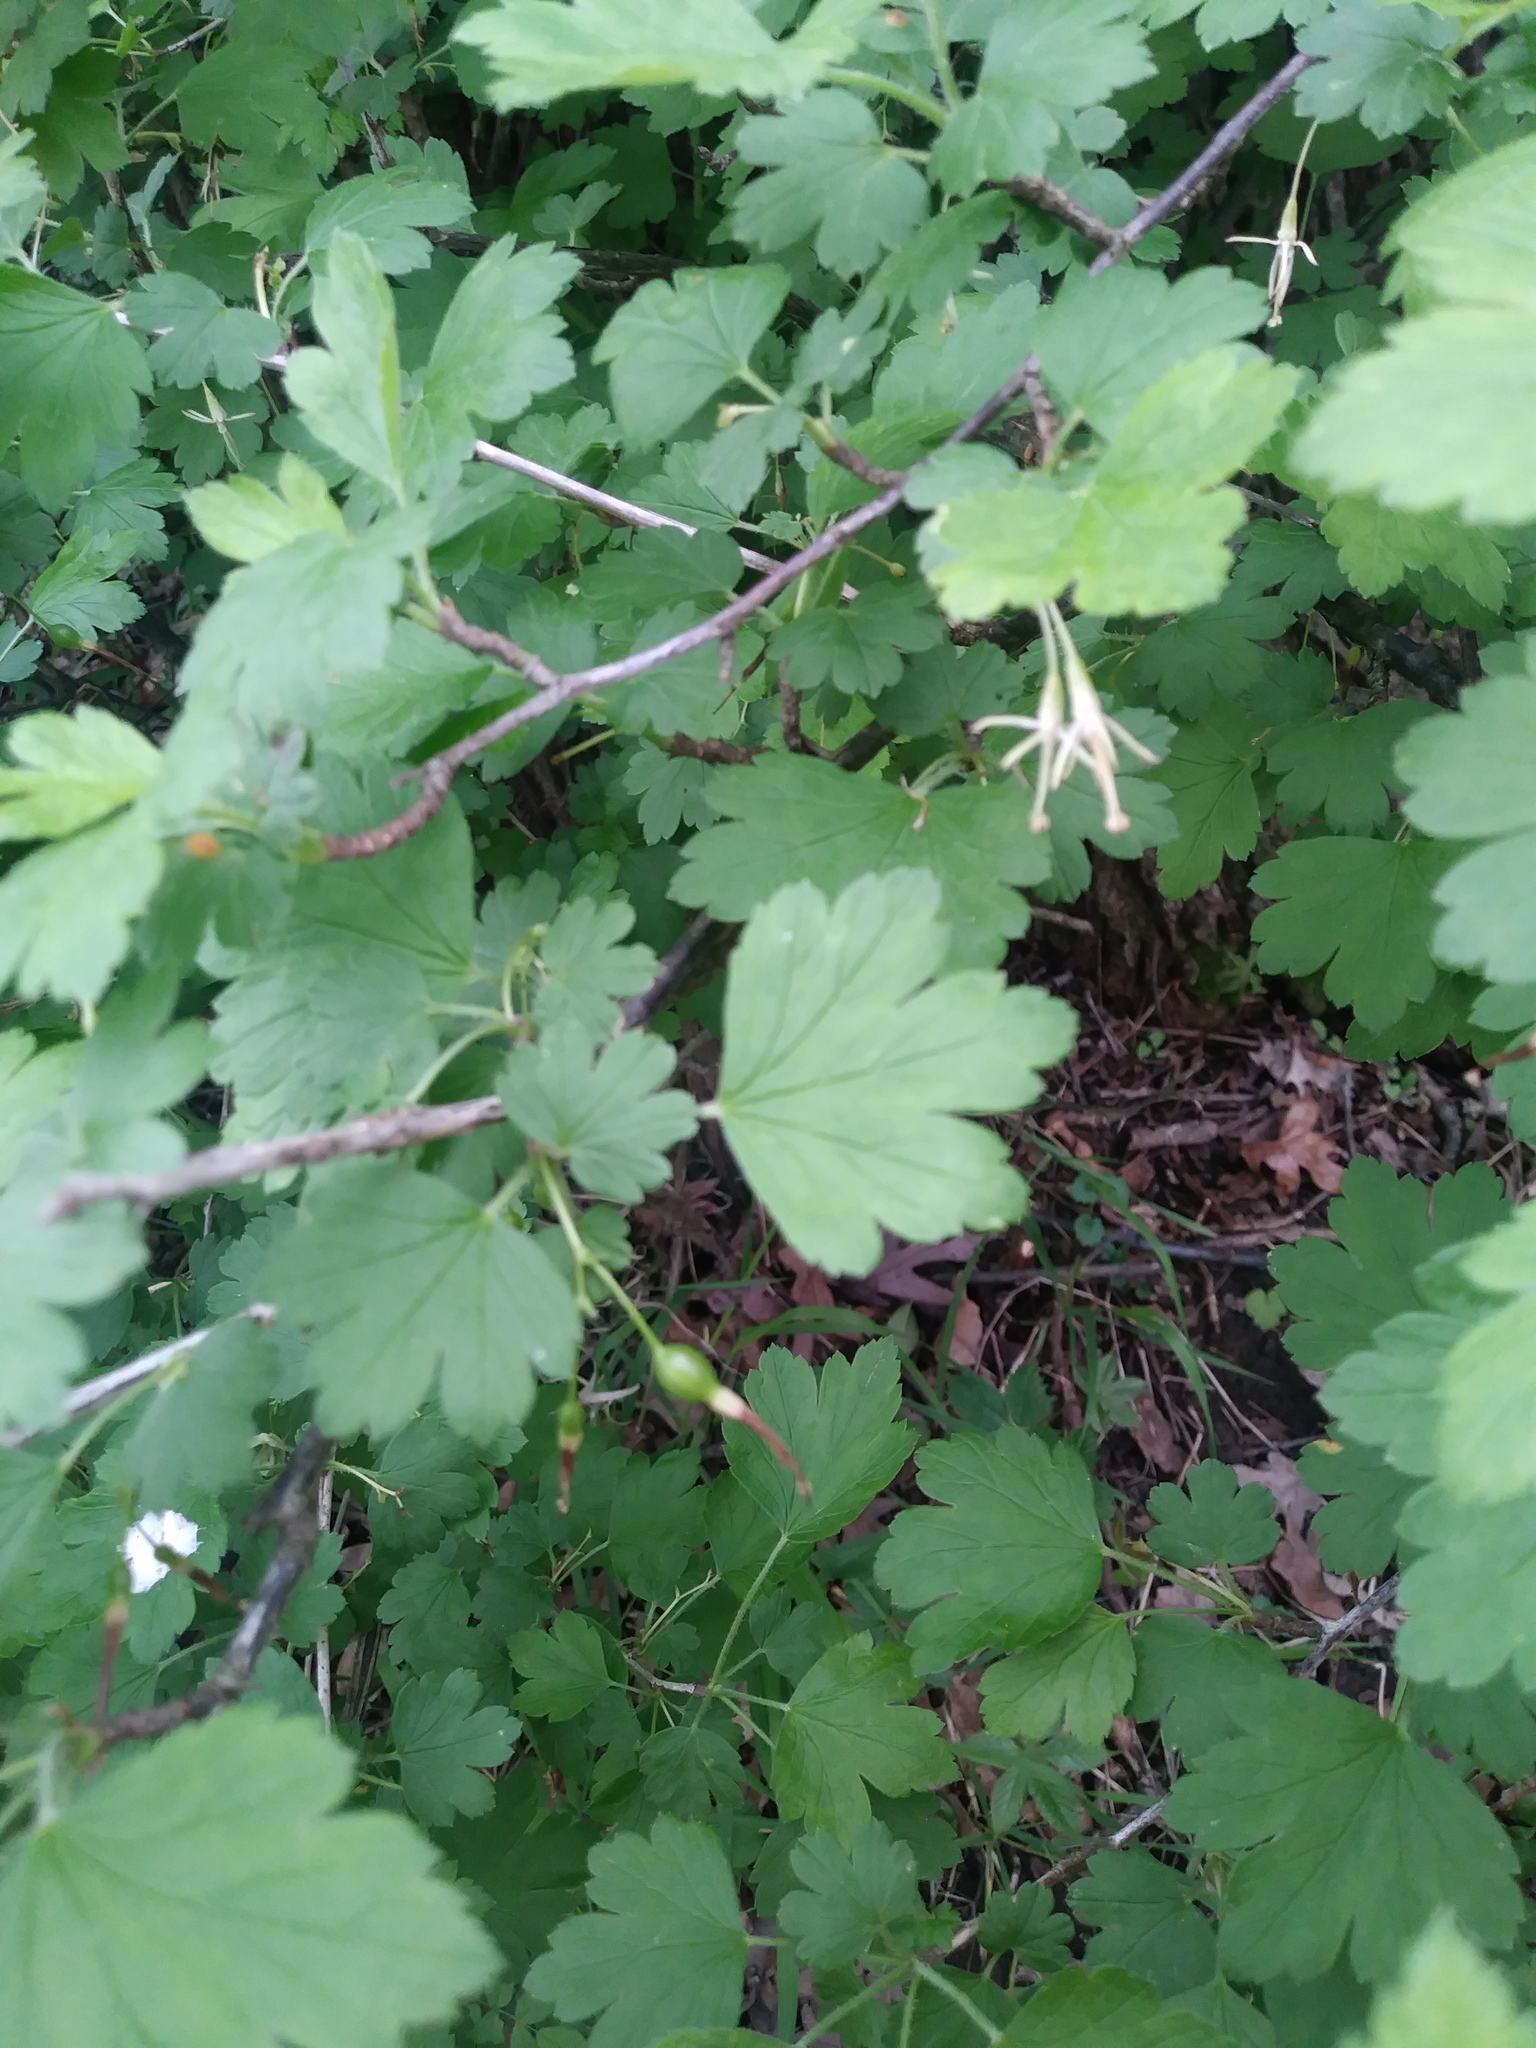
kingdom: Plantae
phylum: Tracheophyta
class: Magnoliopsida
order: Saxifragales
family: Grossulariaceae
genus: Ribes
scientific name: Ribes missouriense
